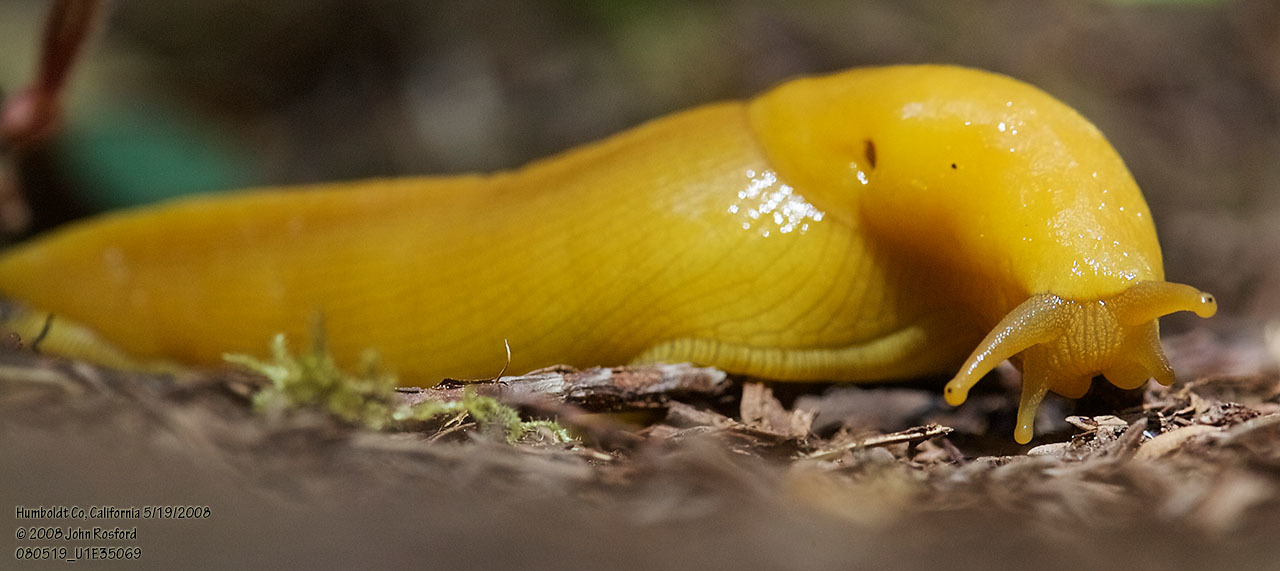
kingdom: Animalia
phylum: Mollusca
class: Gastropoda
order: Stylommatophora
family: Ariolimacidae
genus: Ariolimax
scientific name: Ariolimax columbianus
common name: Pacific banana slug
